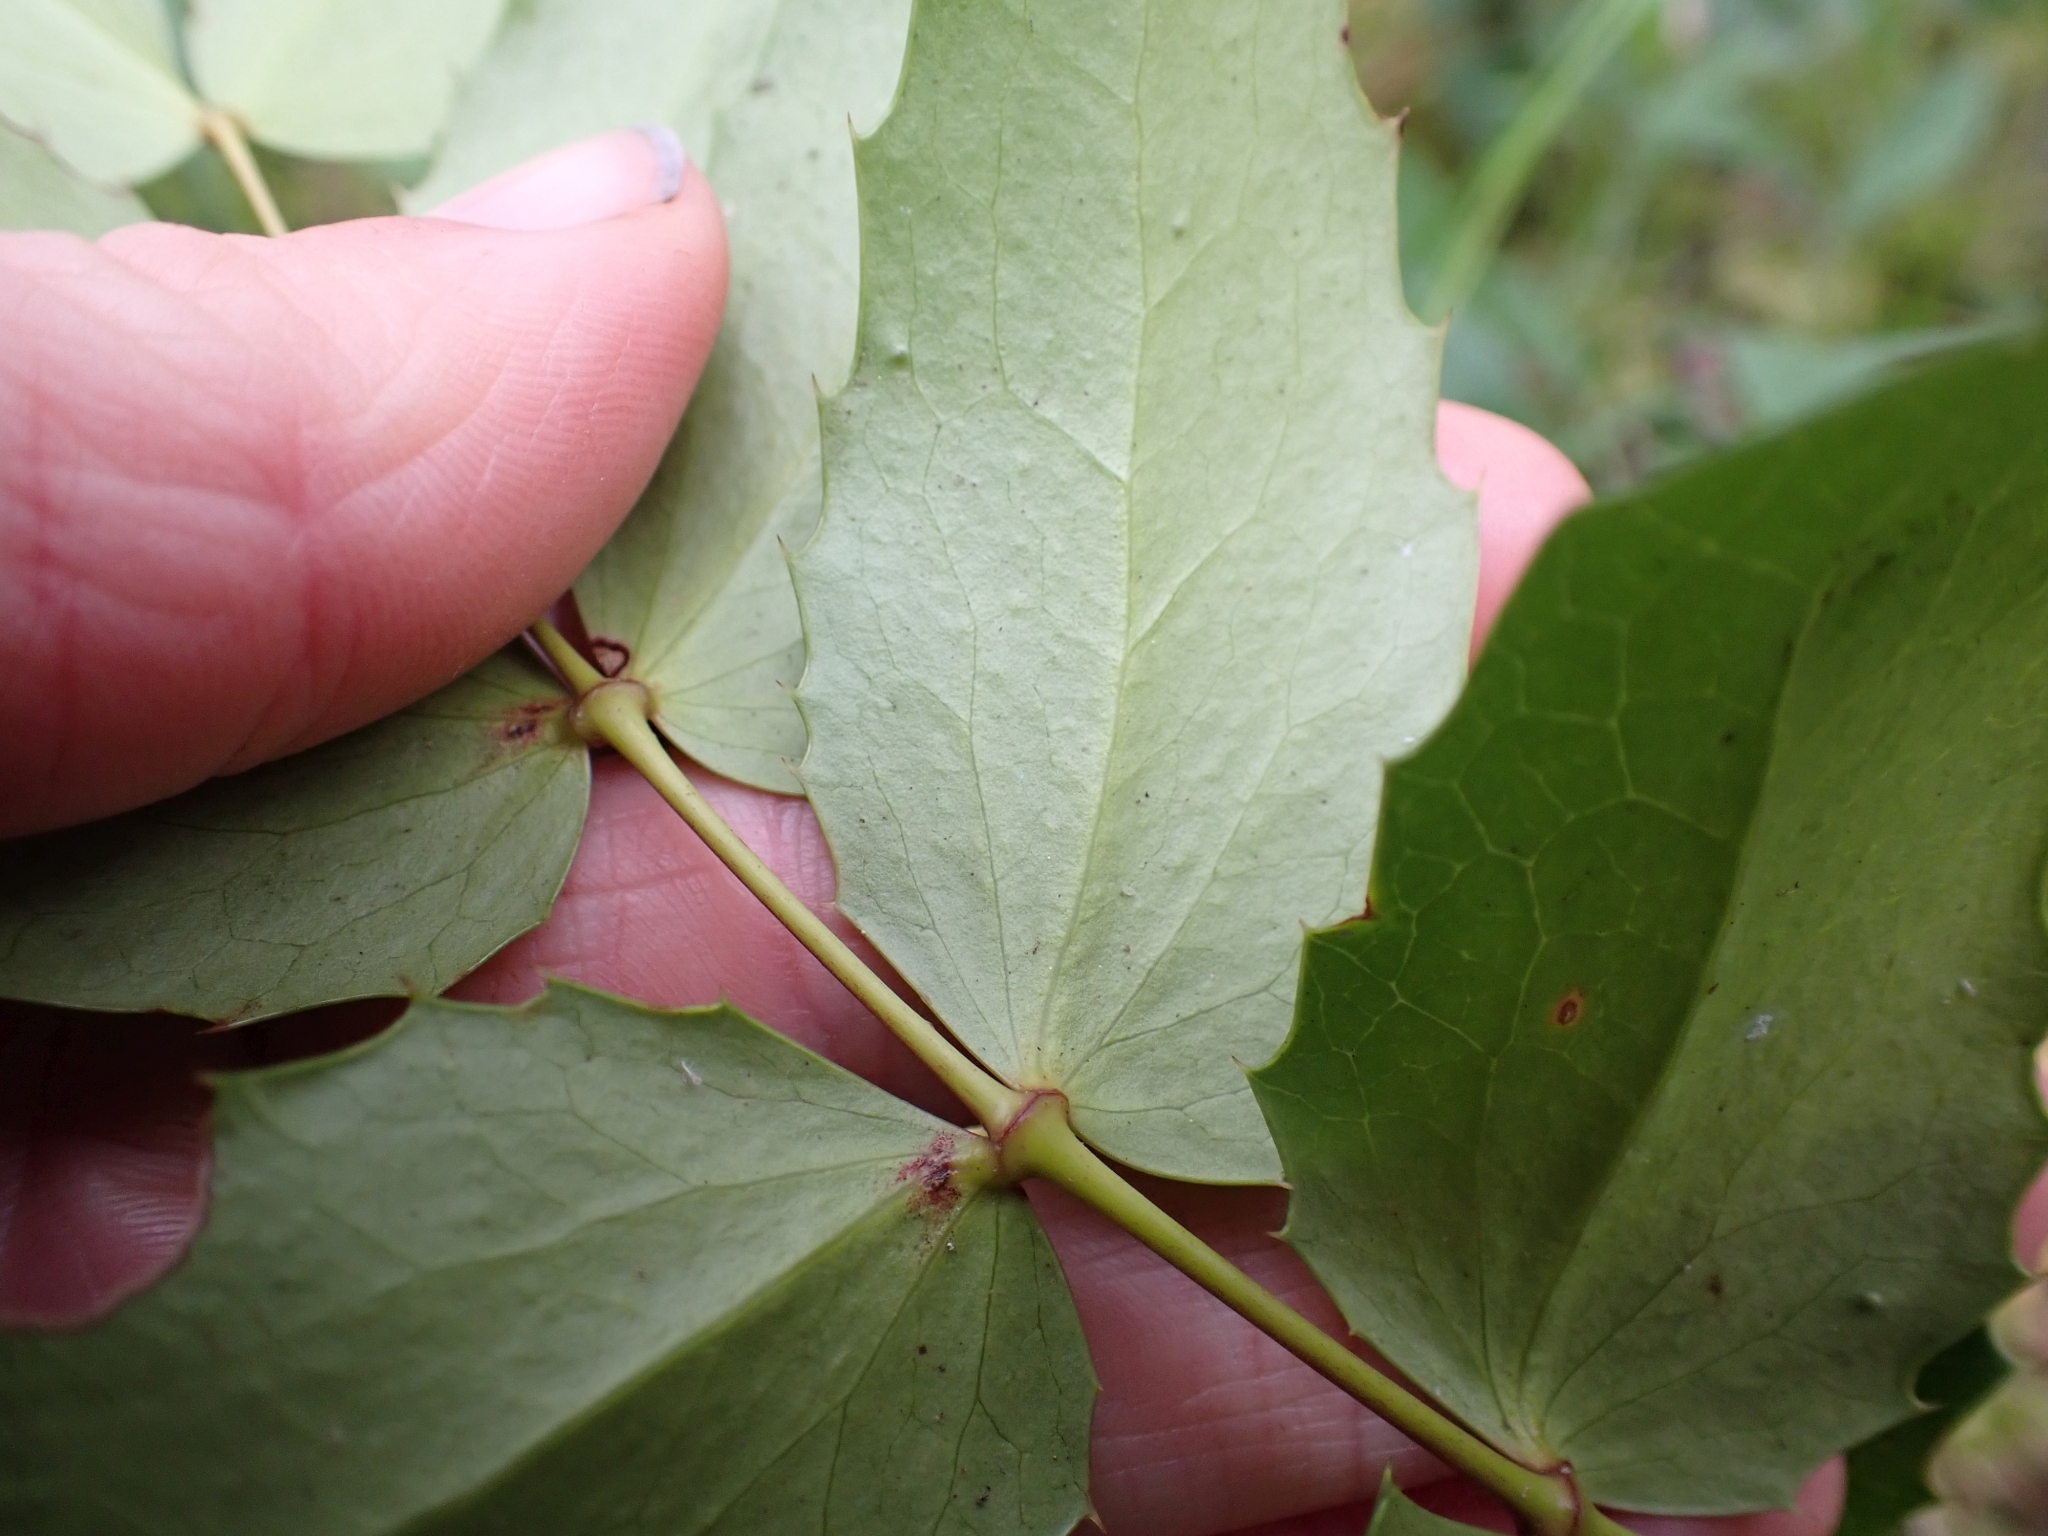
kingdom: Plantae
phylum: Tracheophyta
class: Magnoliopsida
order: Ranunculales
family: Berberidaceae
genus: Mahonia
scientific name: Mahonia nervosa
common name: Cascade oregon-grape
